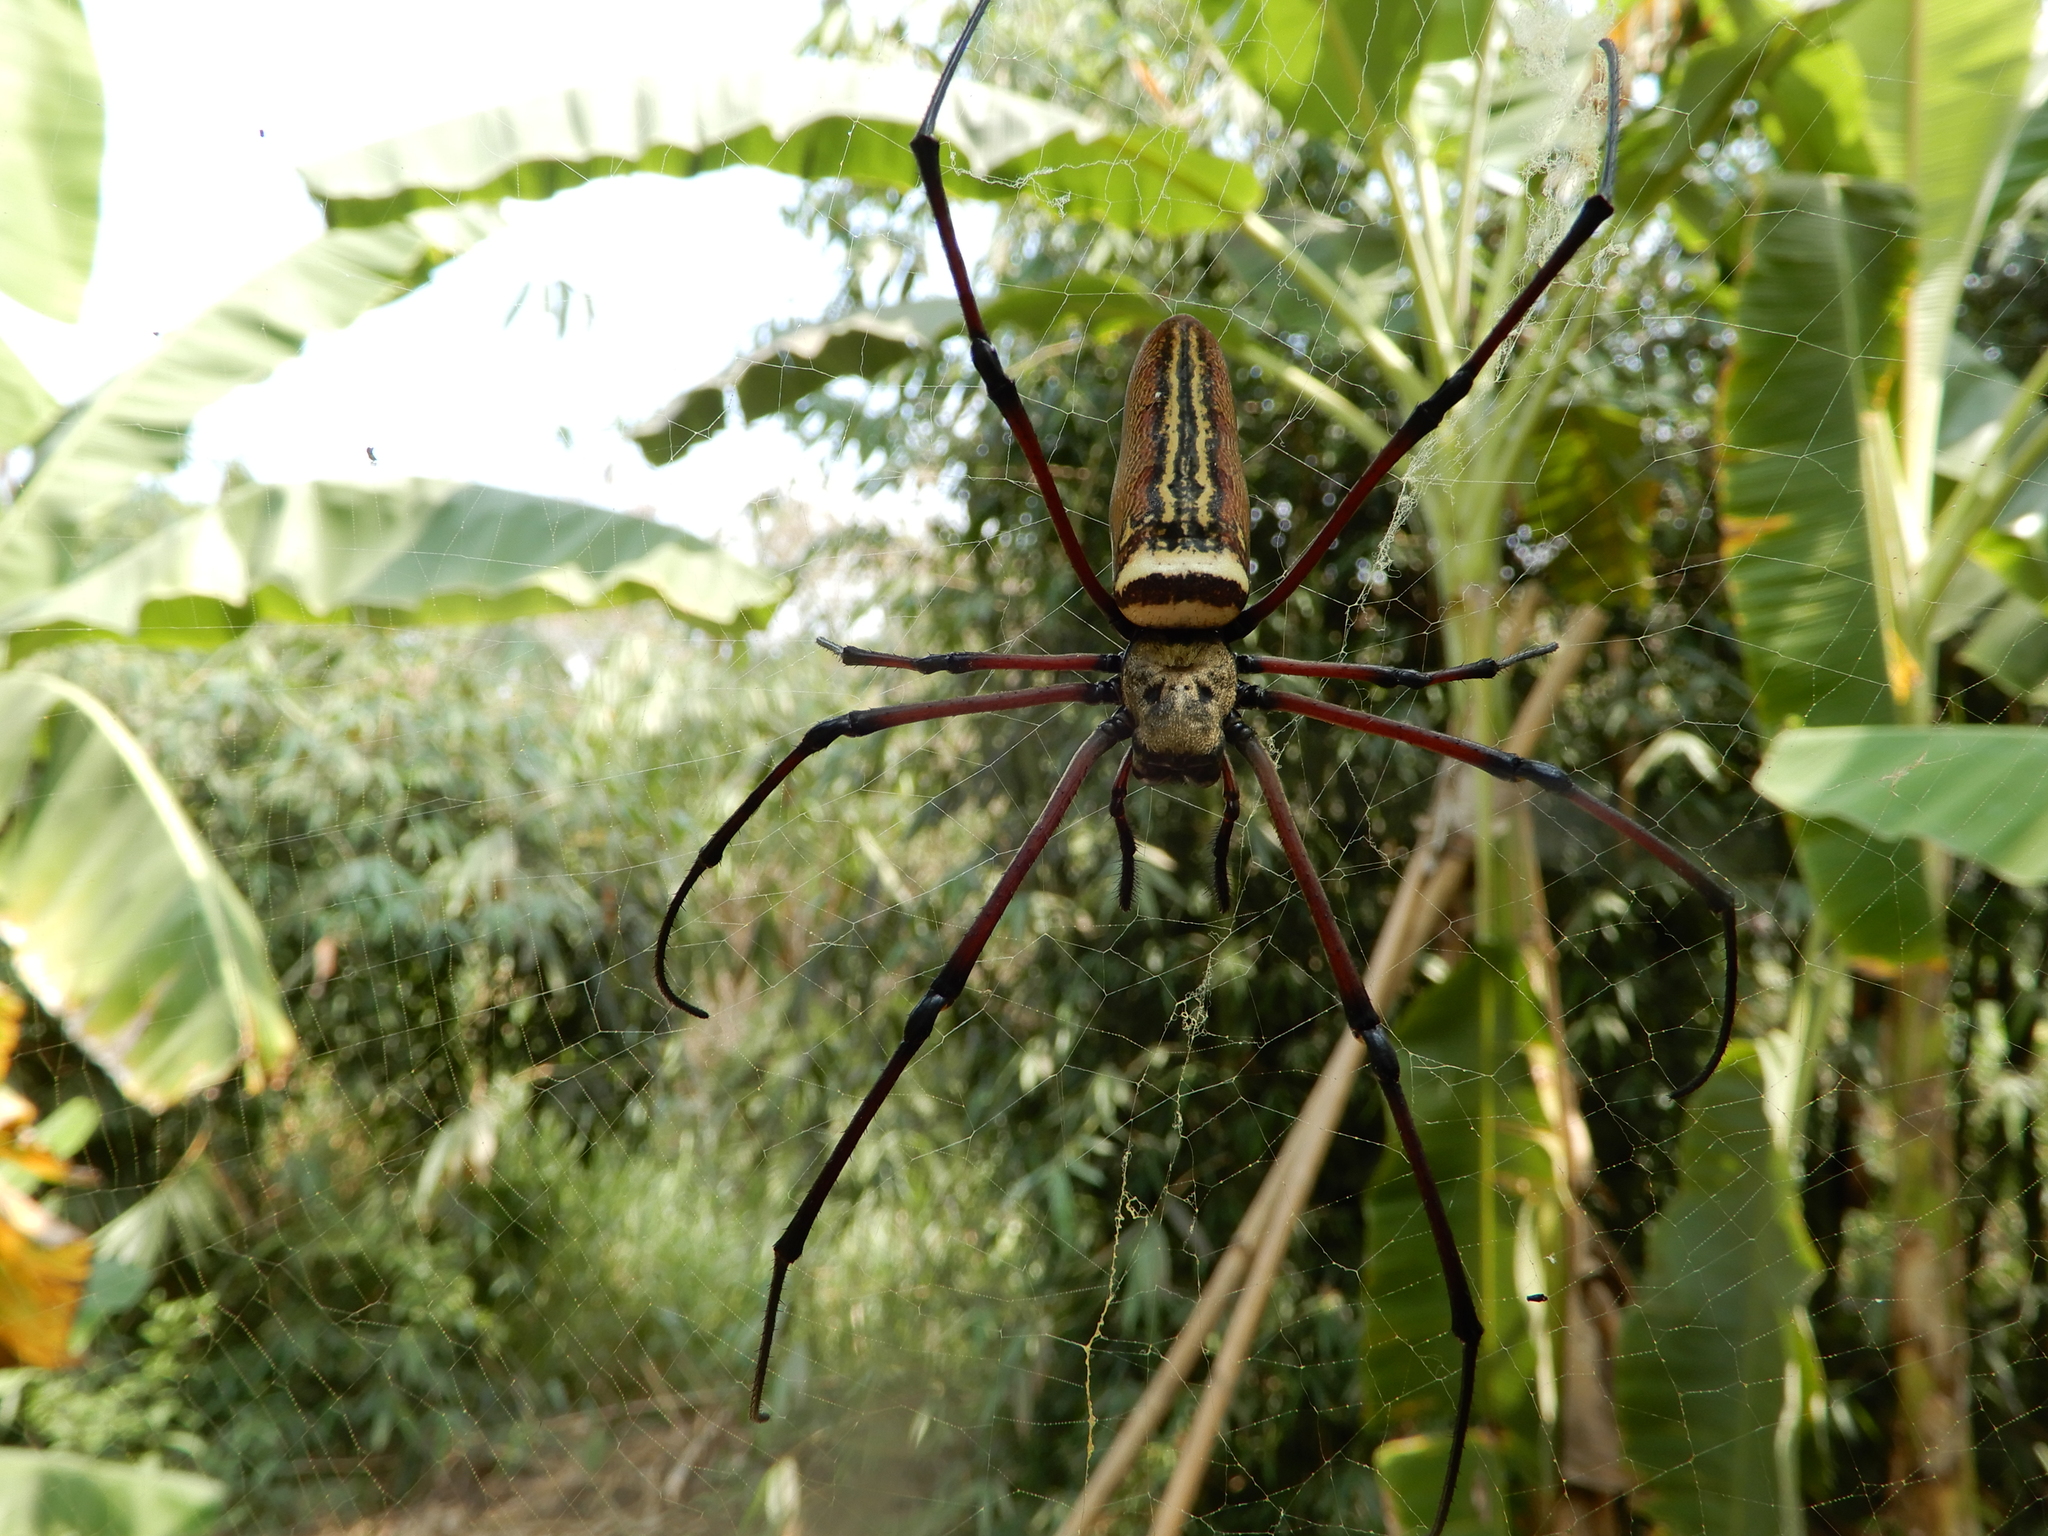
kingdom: Animalia
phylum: Arthropoda
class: Arachnida
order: Araneae
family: Araneidae
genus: Nephila
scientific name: Nephila pilipes
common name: Giant golden orb weaver
